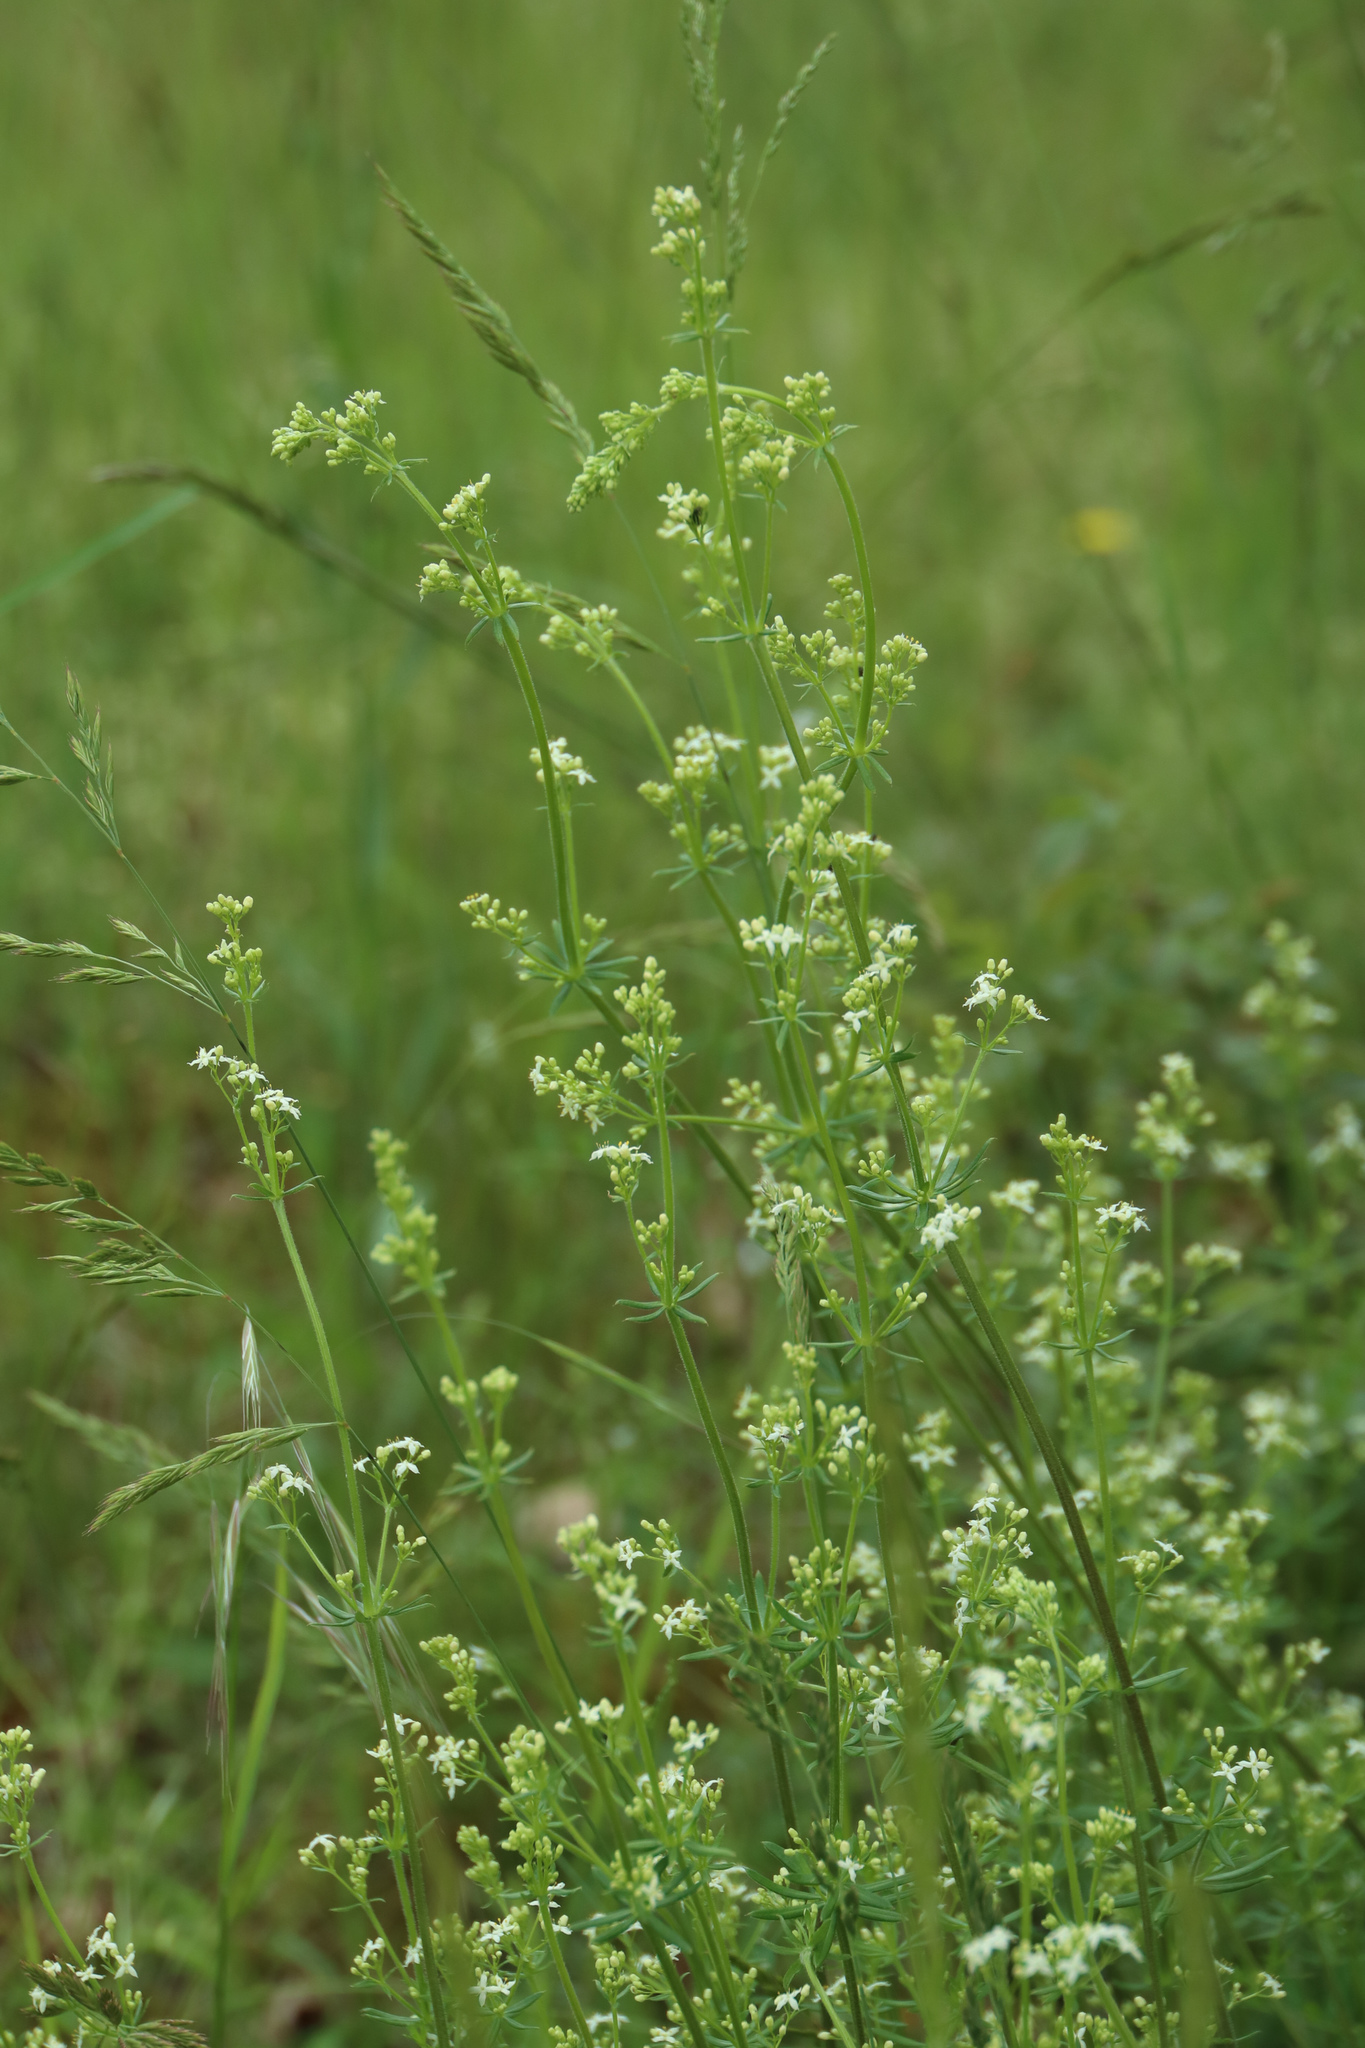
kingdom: Plantae
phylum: Tracheophyta
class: Magnoliopsida
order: Gentianales
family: Rubiaceae
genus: Galium
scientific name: Galium album
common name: White bedstraw
